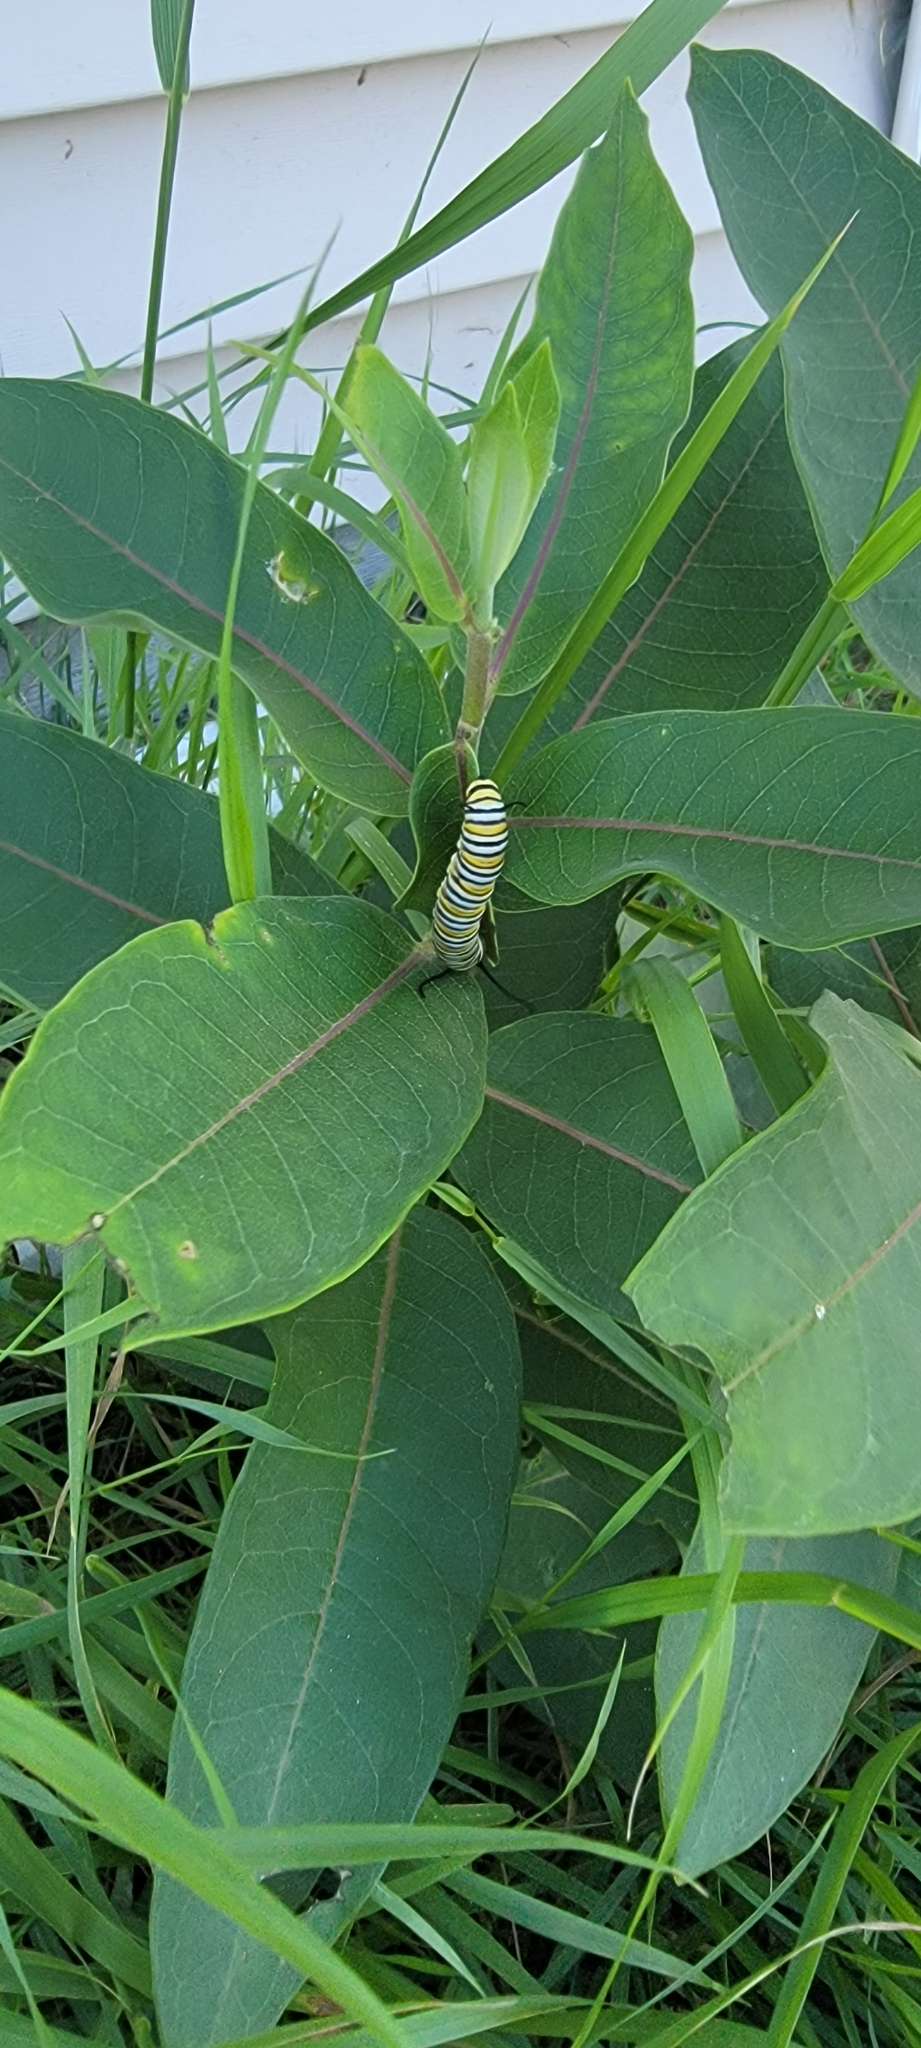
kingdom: Animalia
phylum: Arthropoda
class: Insecta
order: Lepidoptera
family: Nymphalidae
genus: Danaus
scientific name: Danaus plexippus
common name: Monarch
